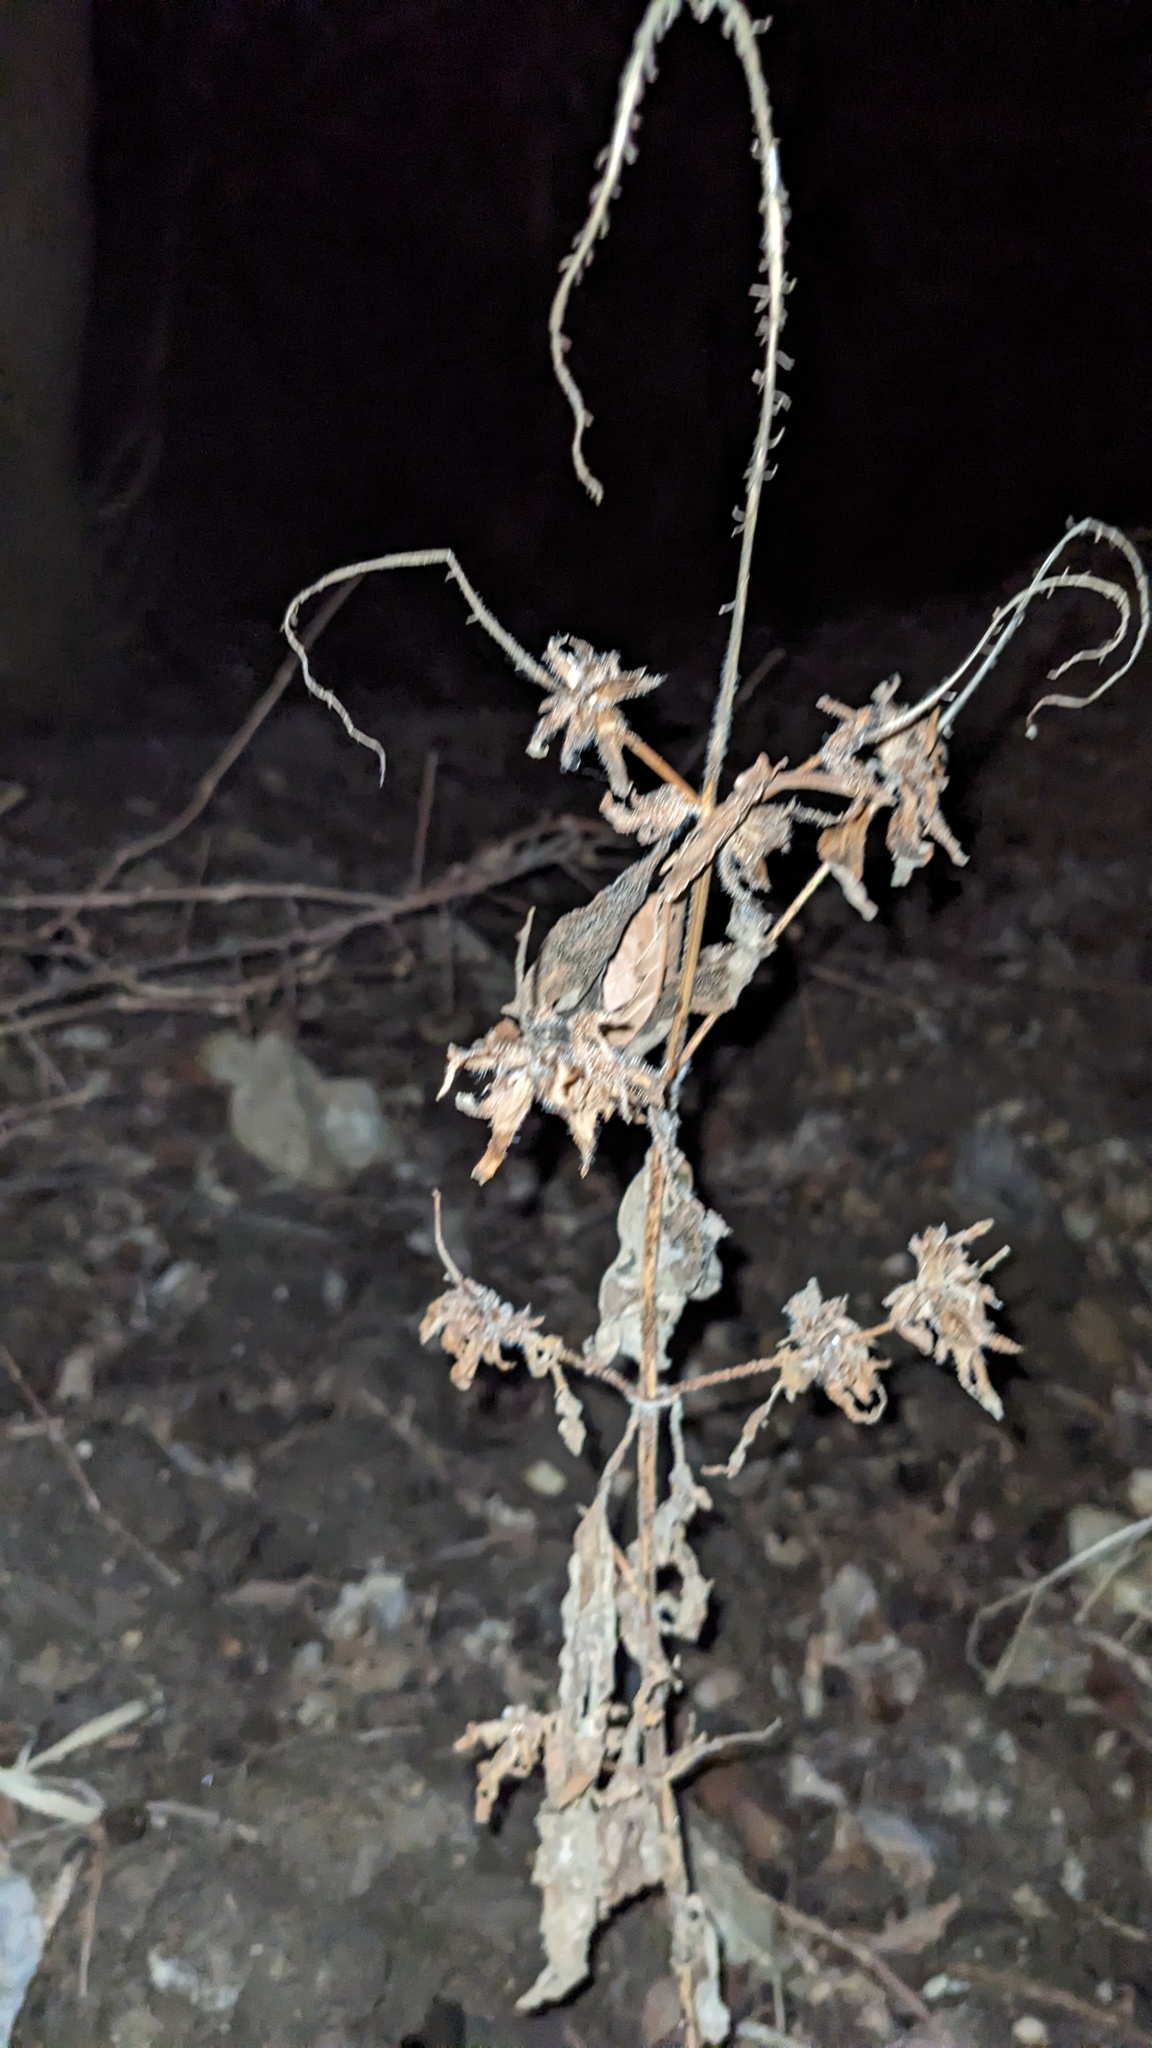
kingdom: Plantae
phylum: Tracheophyta
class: Magnoliopsida
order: Asterales
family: Asteraceae
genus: Ambrosia
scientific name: Ambrosia trifida
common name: Giant ragweed
